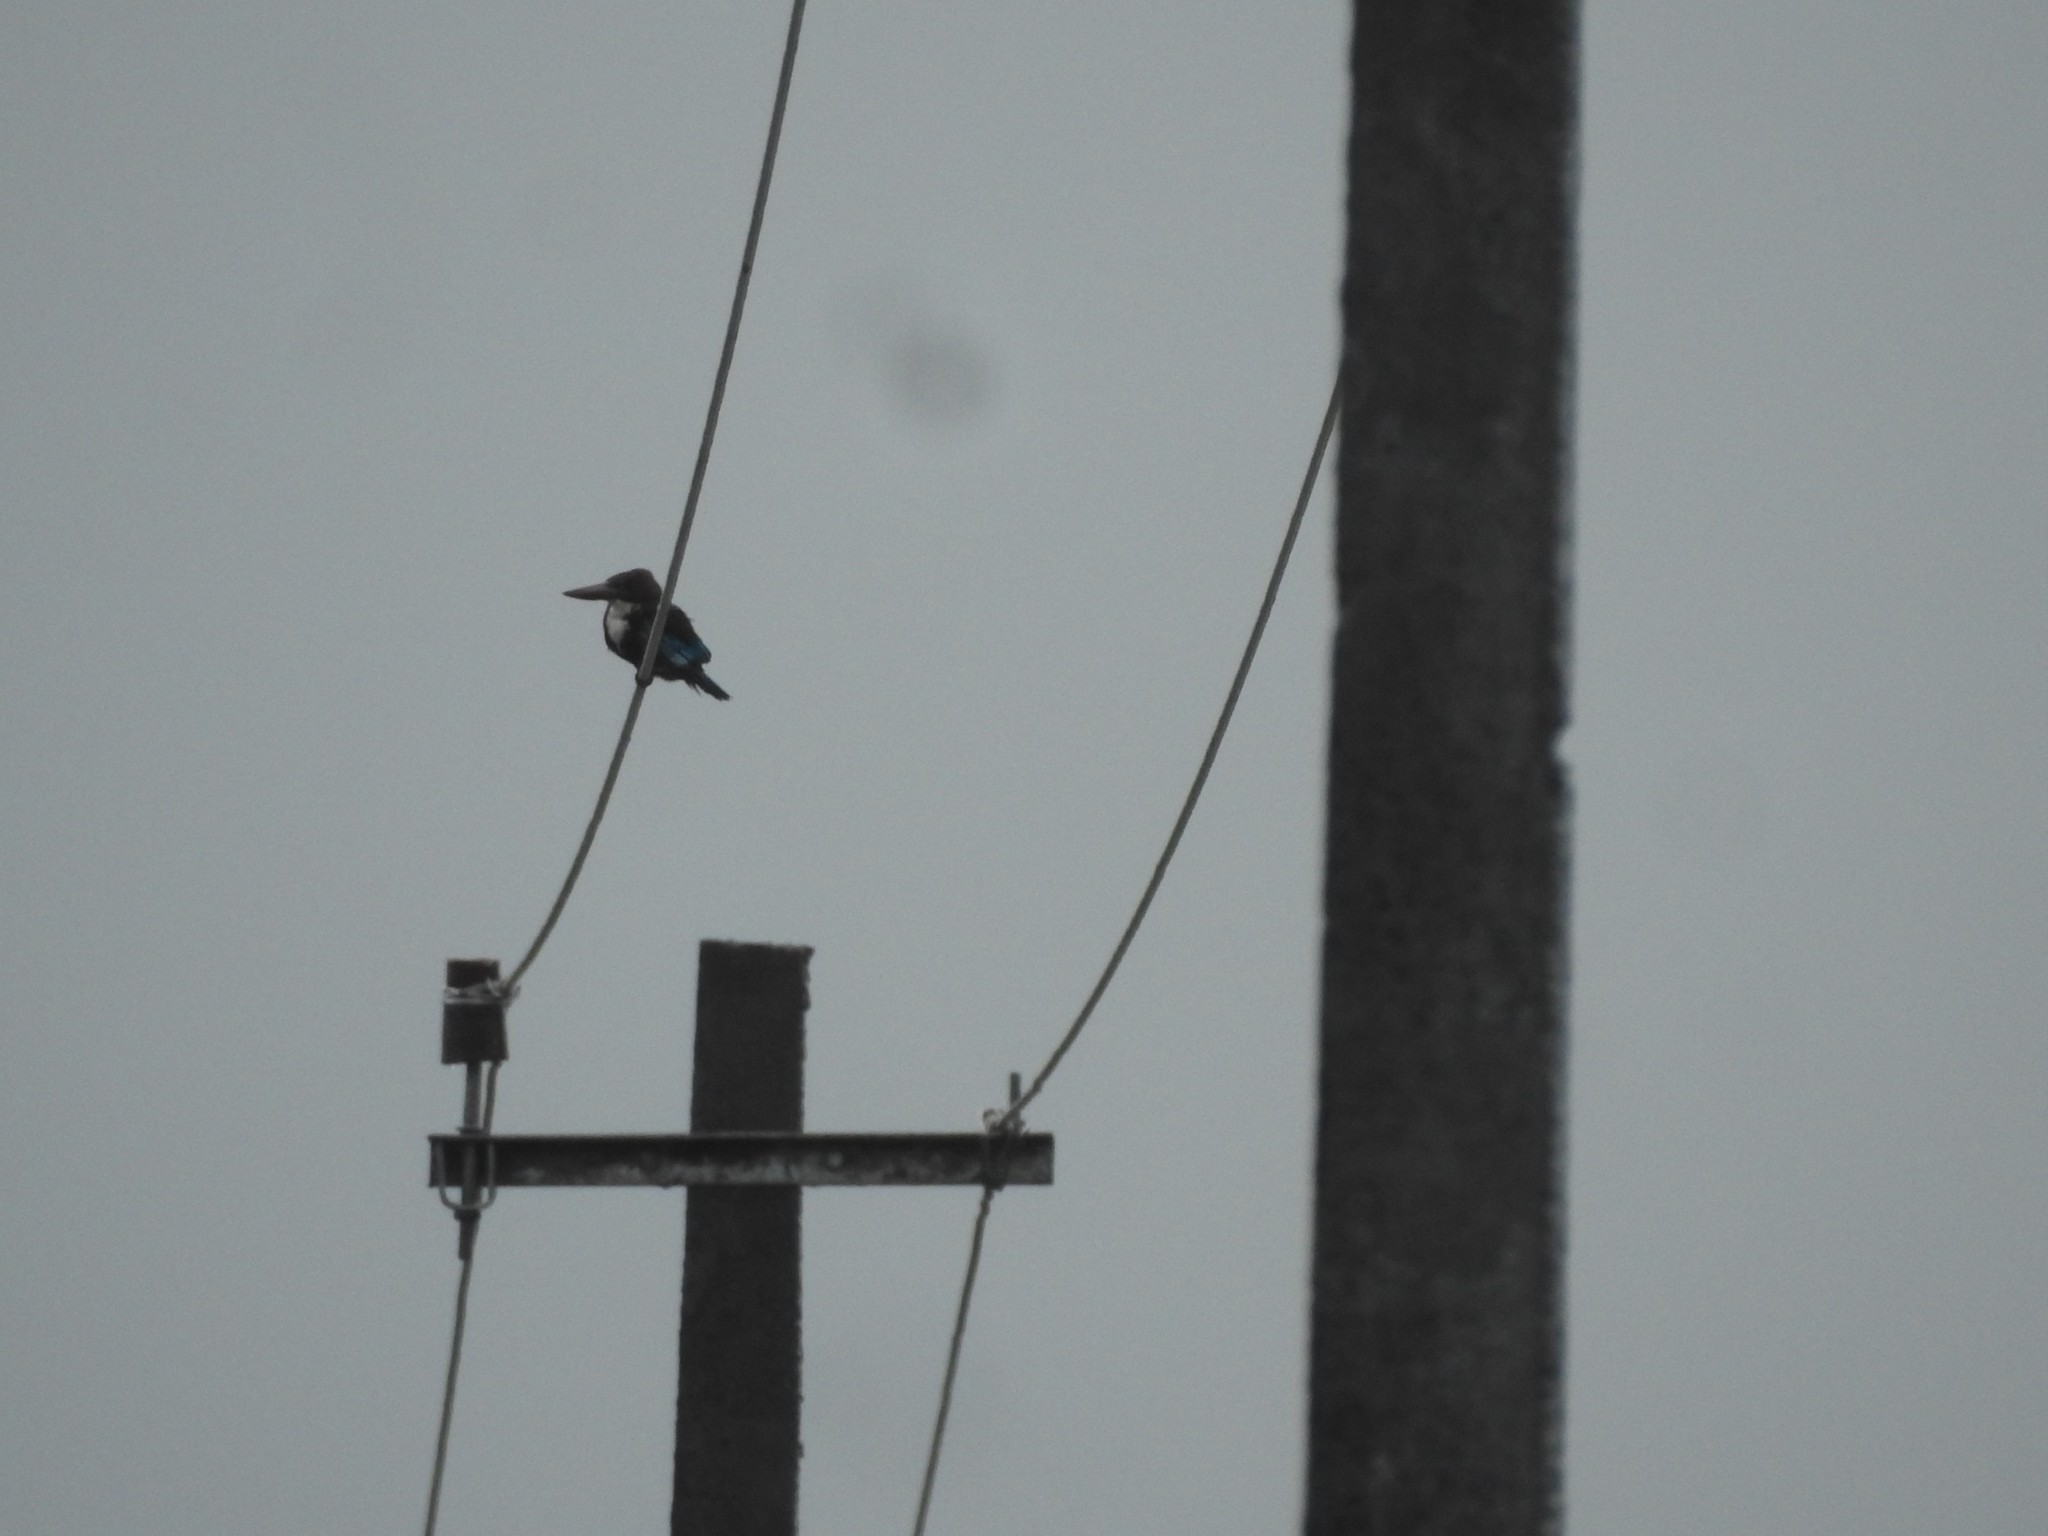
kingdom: Animalia
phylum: Chordata
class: Aves
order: Coraciiformes
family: Alcedinidae
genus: Halcyon
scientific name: Halcyon smyrnensis
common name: White-throated kingfisher
